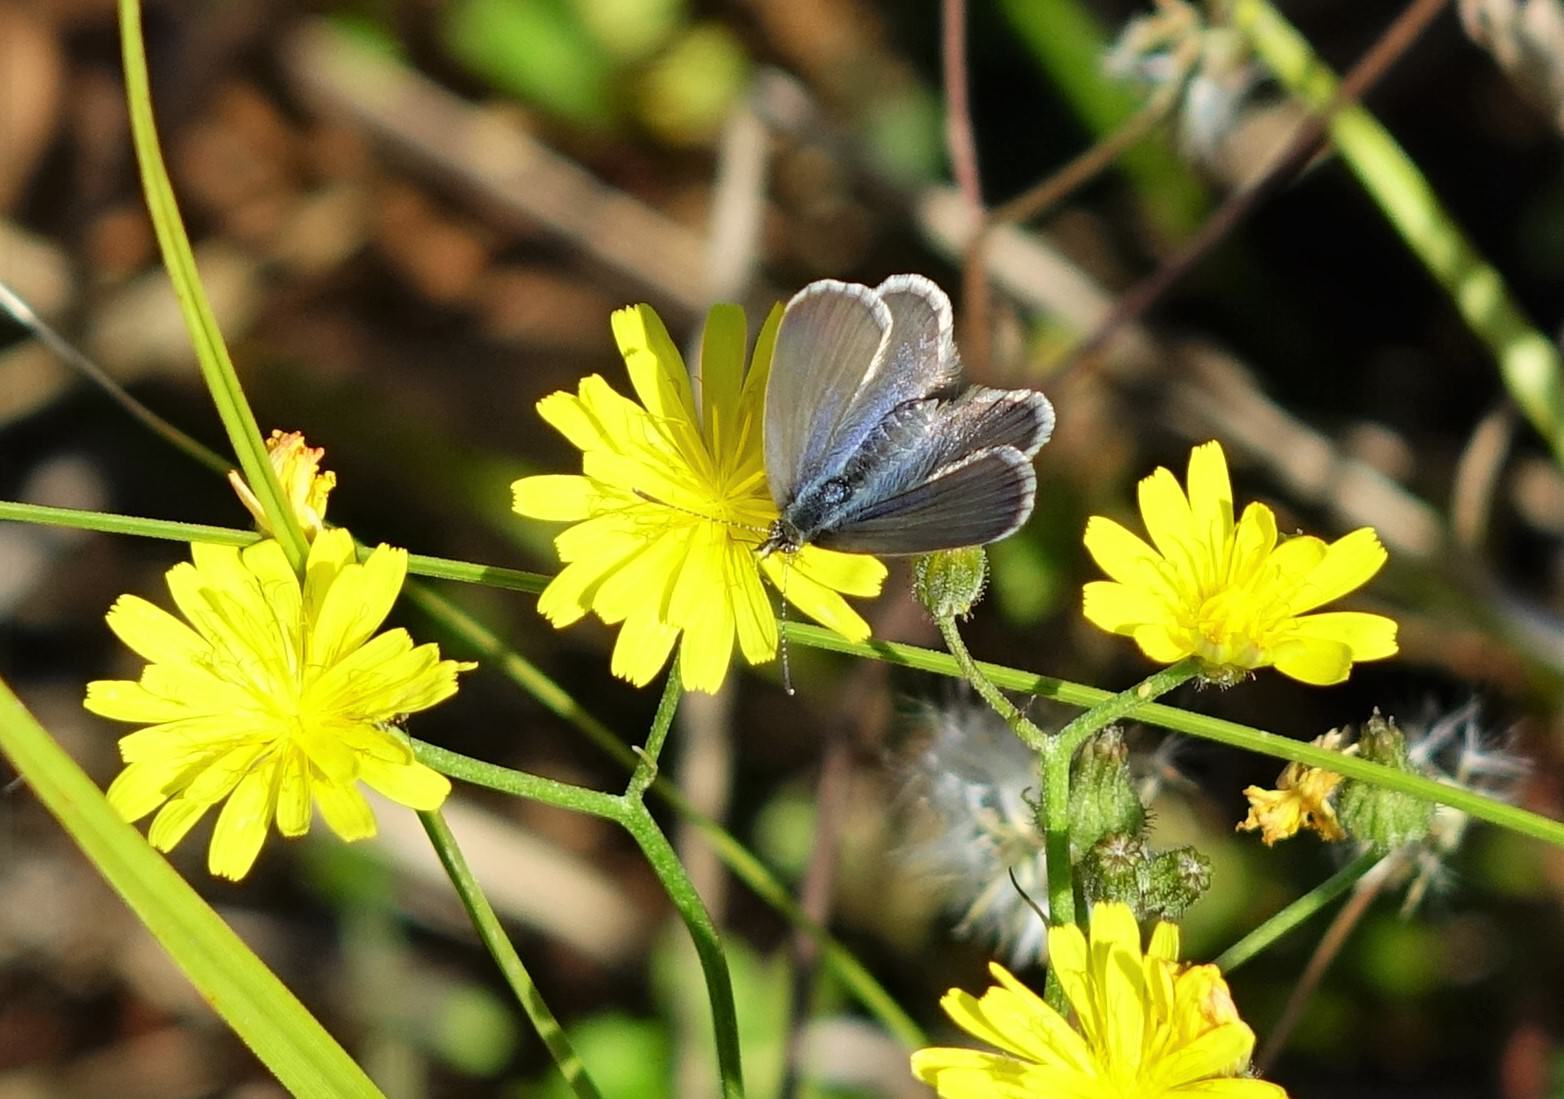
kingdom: Animalia
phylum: Arthropoda
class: Insecta
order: Lepidoptera
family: Lycaenidae
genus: Zizina
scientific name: Zizina labradus
